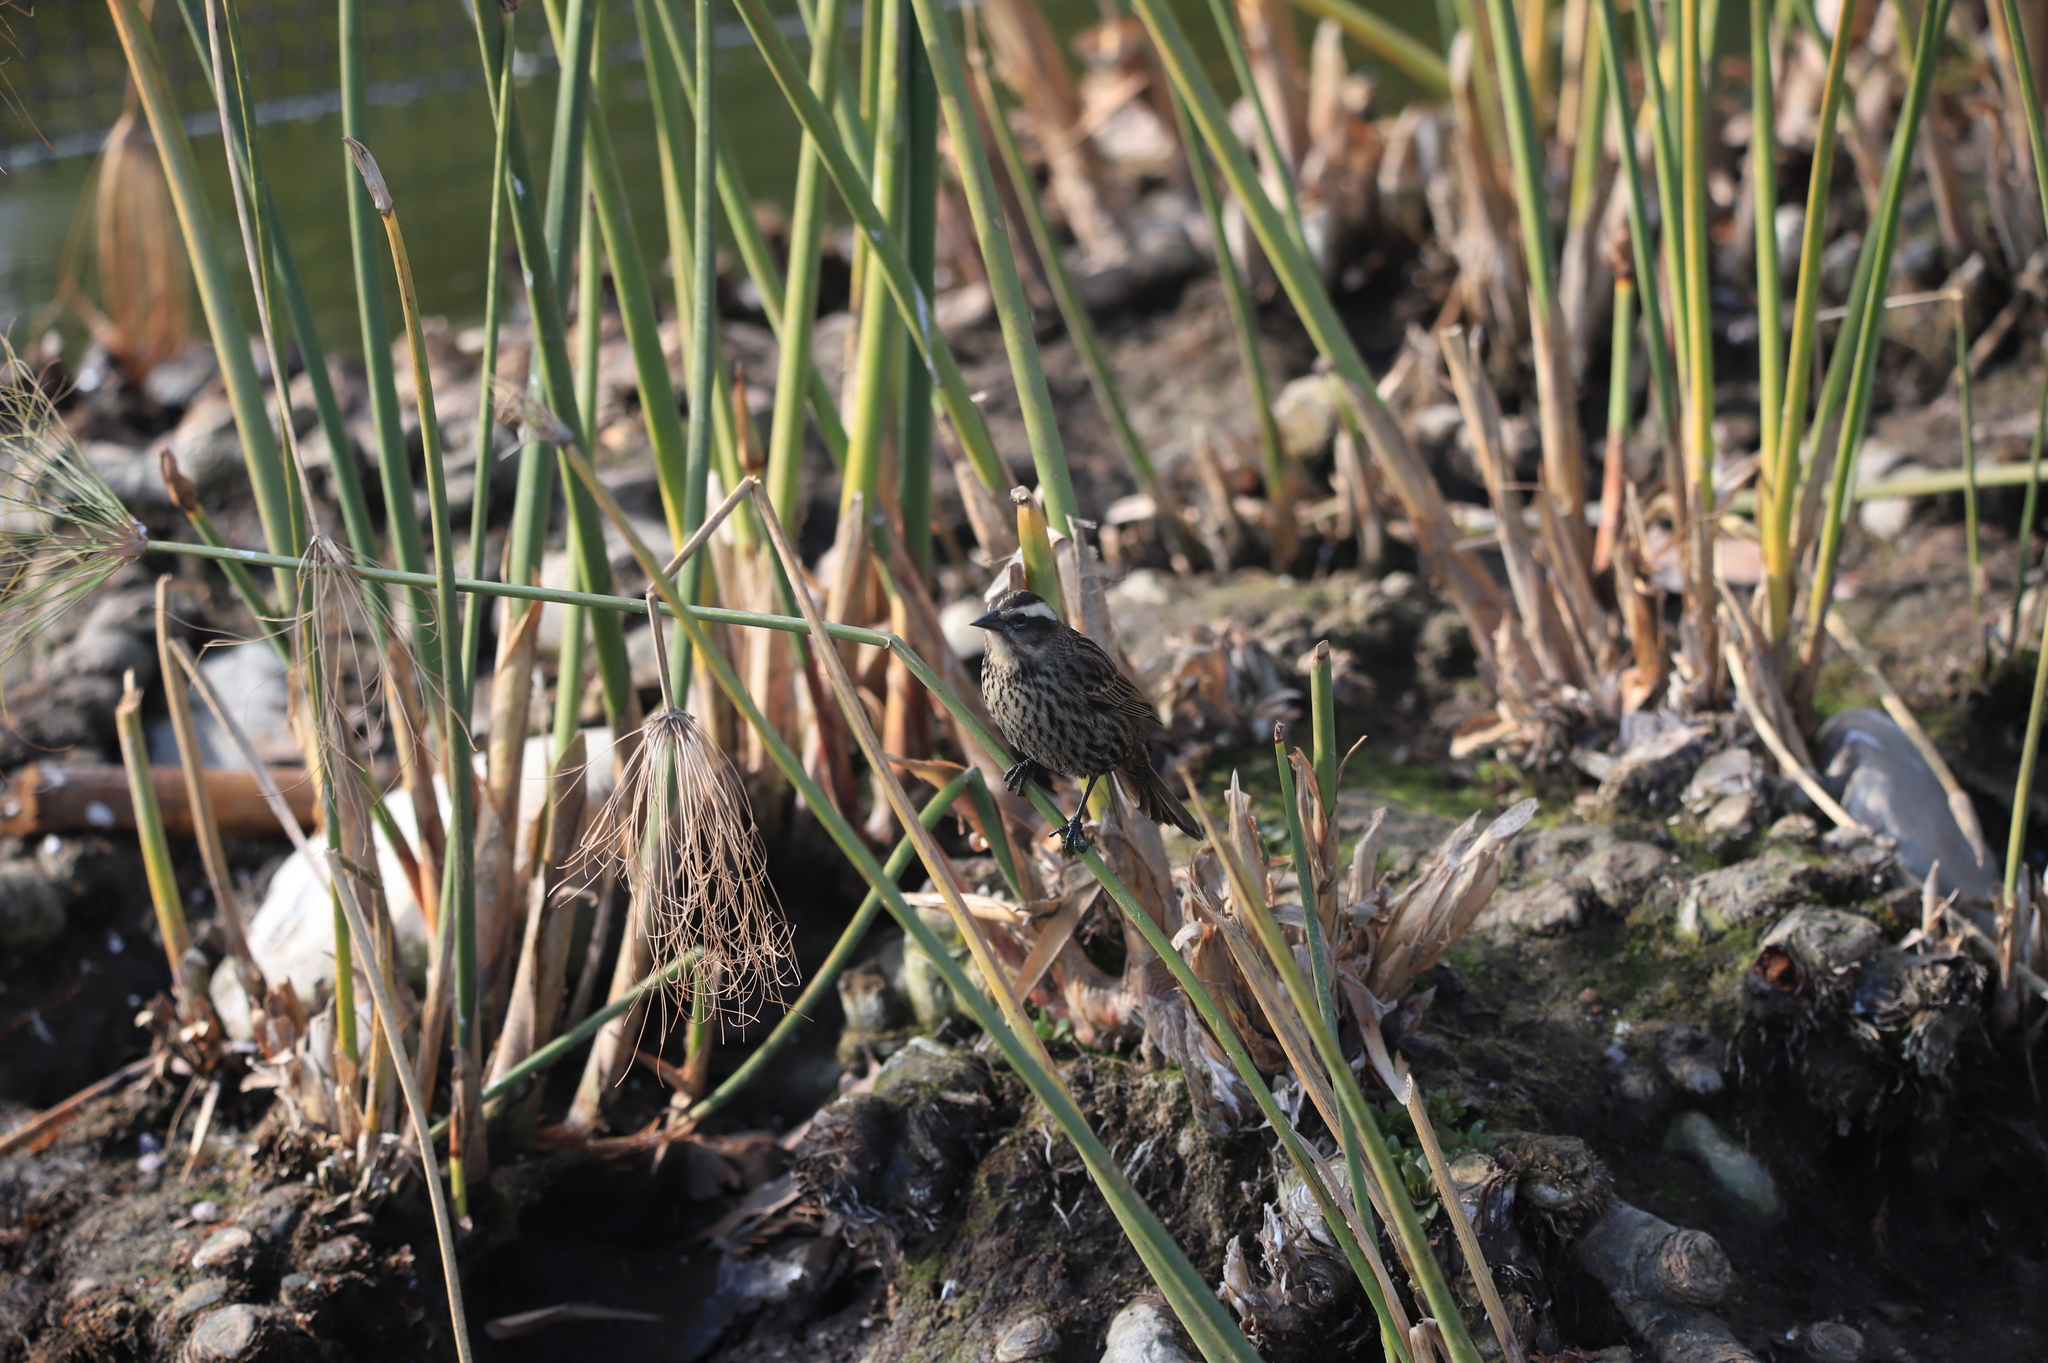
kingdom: Animalia
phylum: Chordata
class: Aves
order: Passeriformes
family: Icteridae
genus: Agelasticus
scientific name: Agelasticus thilius
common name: Yellow-winged blackbird
